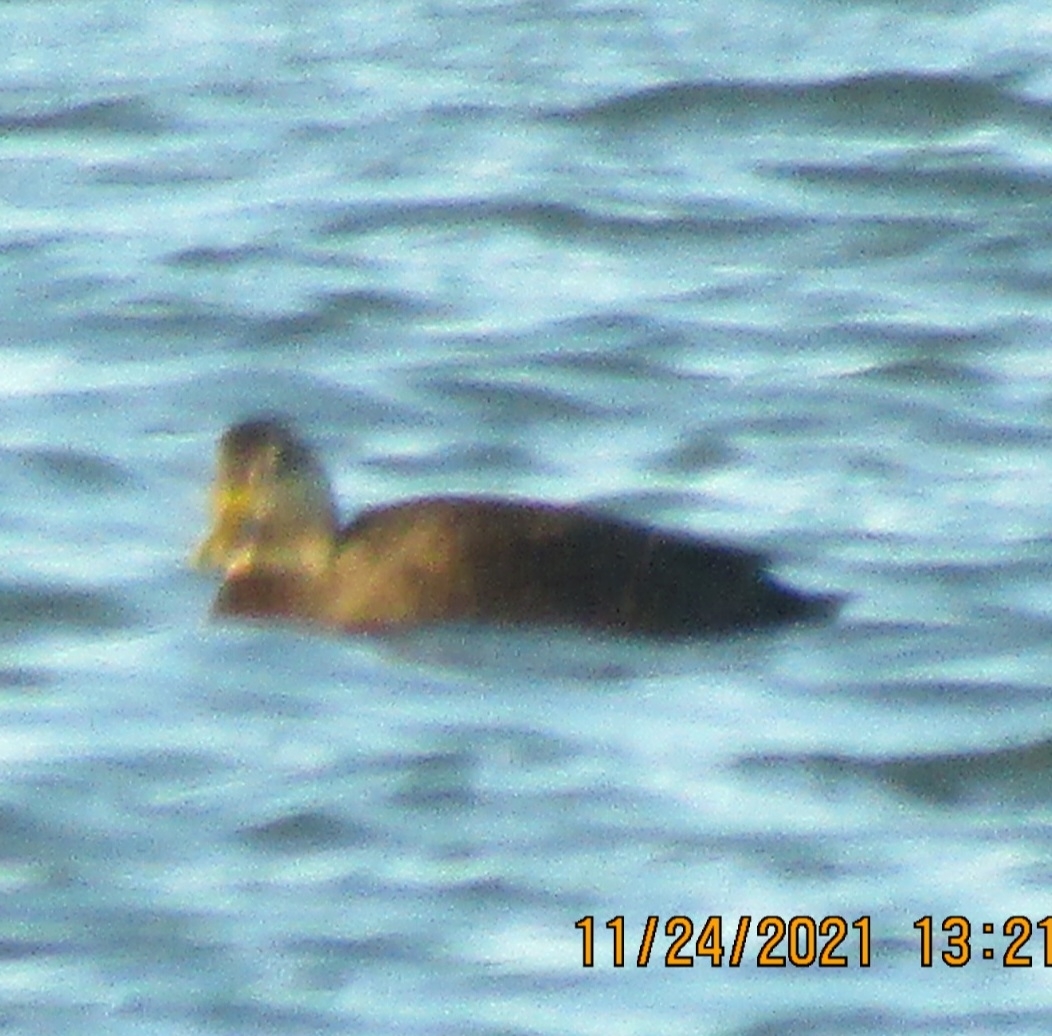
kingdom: Animalia
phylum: Chordata
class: Aves
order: Anseriformes
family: Anatidae
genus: Anas
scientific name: Anas rubripes
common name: American black duck
